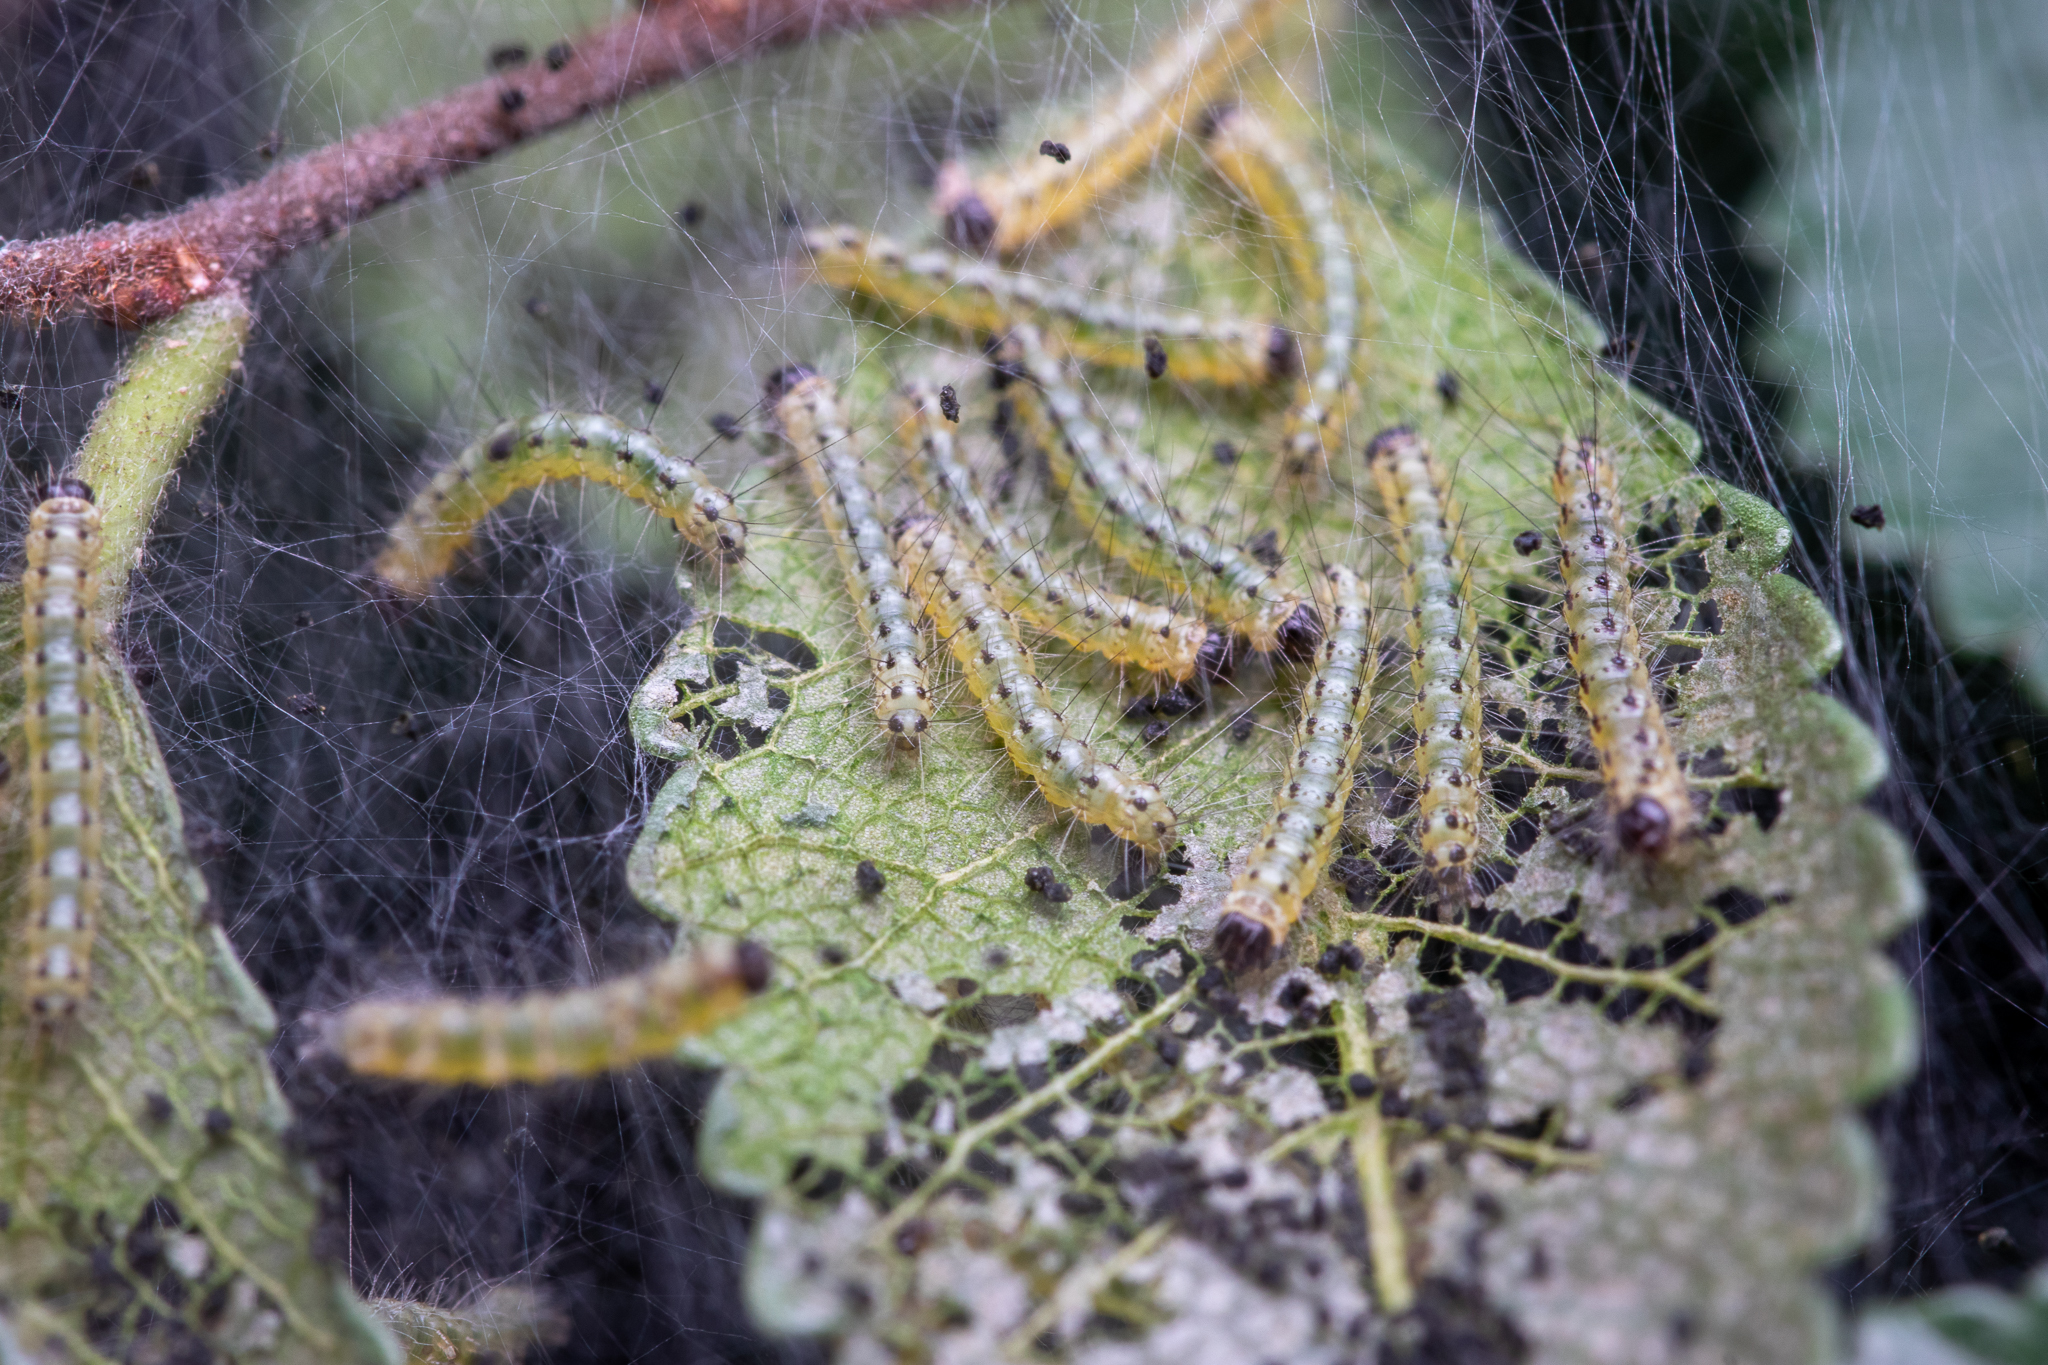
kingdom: Animalia
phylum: Arthropoda
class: Insecta
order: Lepidoptera
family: Erebidae
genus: Hyphantria
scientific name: Hyphantria cunea
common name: American white moth
